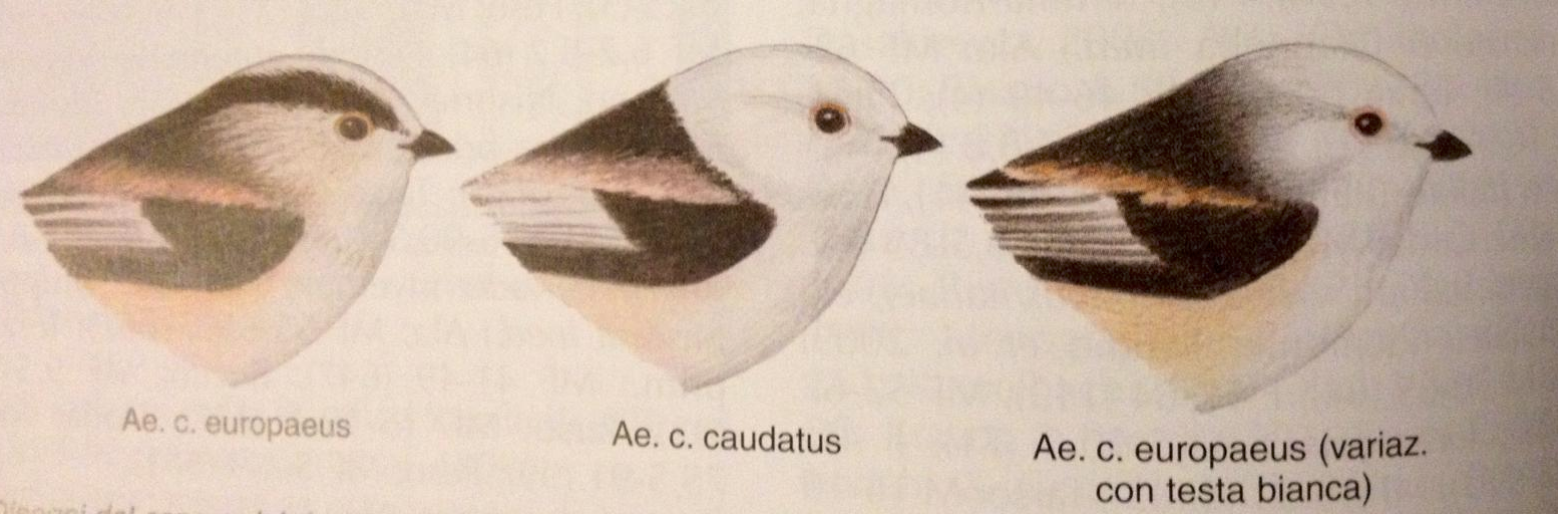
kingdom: Animalia
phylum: Chordata
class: Aves
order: Passeriformes
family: Aegithalidae
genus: Aegithalos
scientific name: Aegithalos caudatus
